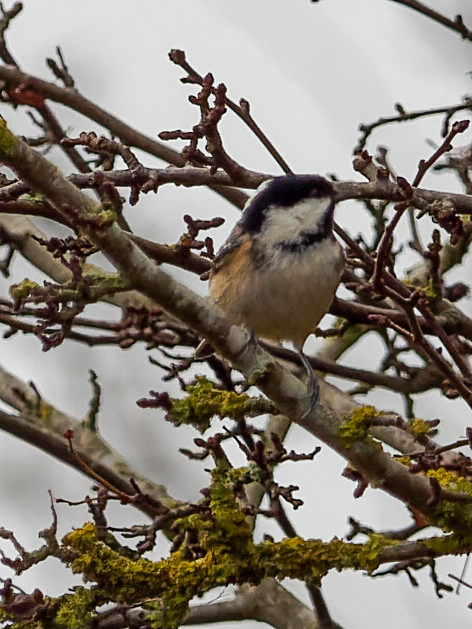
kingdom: Animalia
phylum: Chordata
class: Aves
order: Passeriformes
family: Paridae
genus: Periparus
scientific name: Periparus ater
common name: Coal tit
